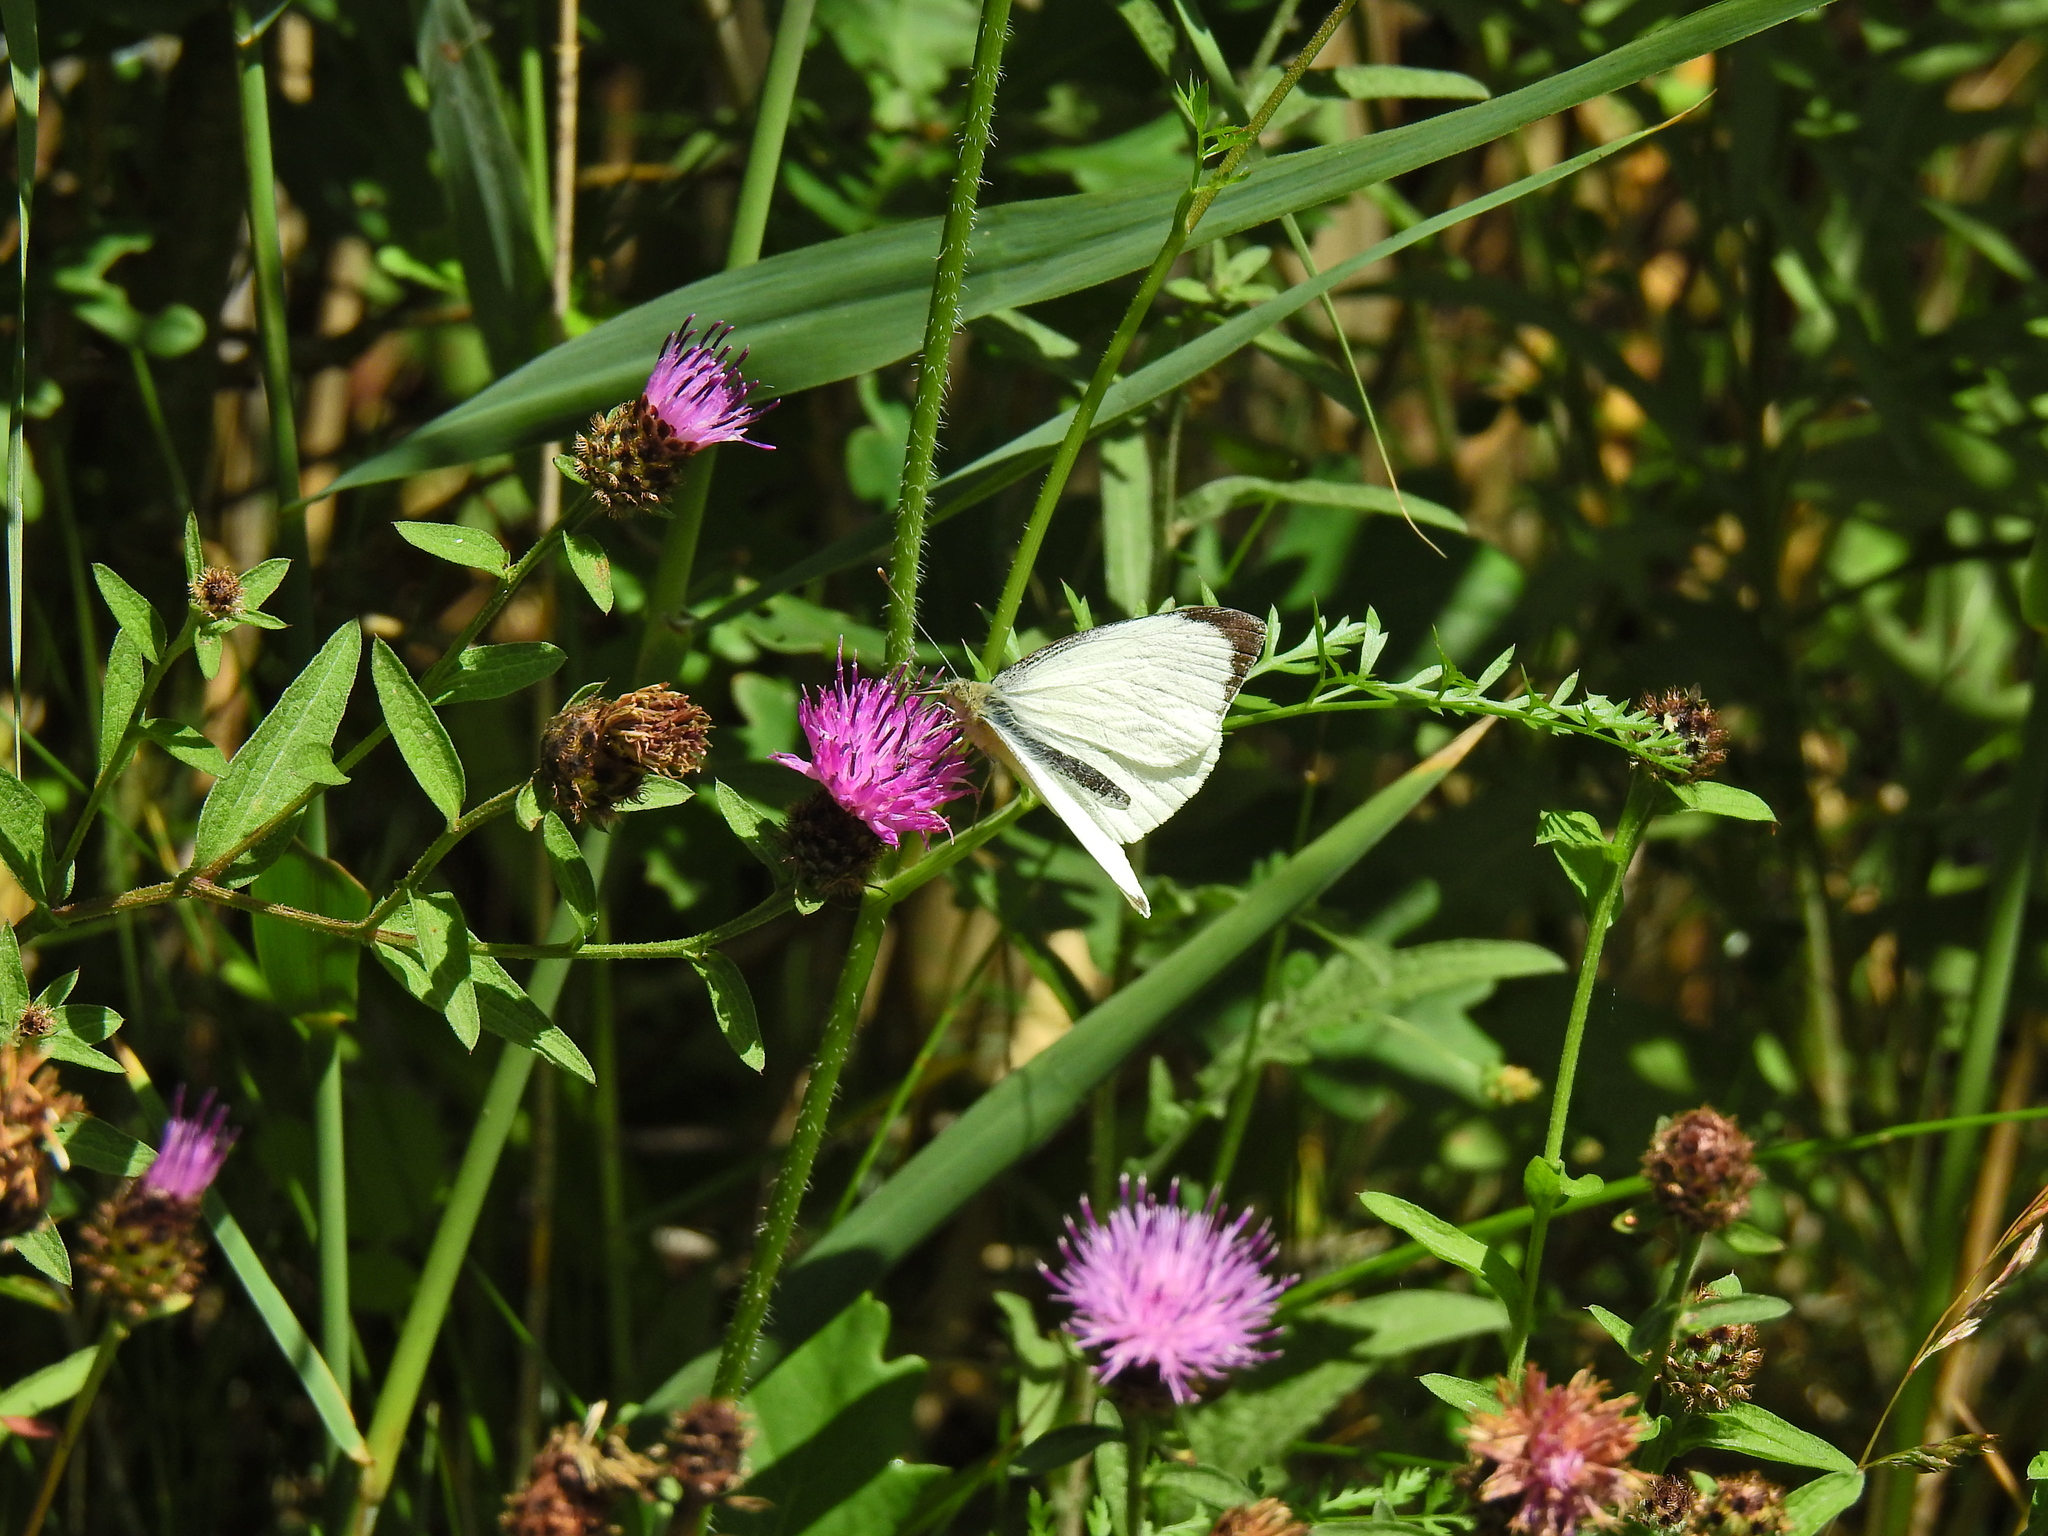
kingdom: Animalia
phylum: Arthropoda
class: Insecta
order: Lepidoptera
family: Pieridae
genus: Pieris
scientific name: Pieris brassicae
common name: Large white
